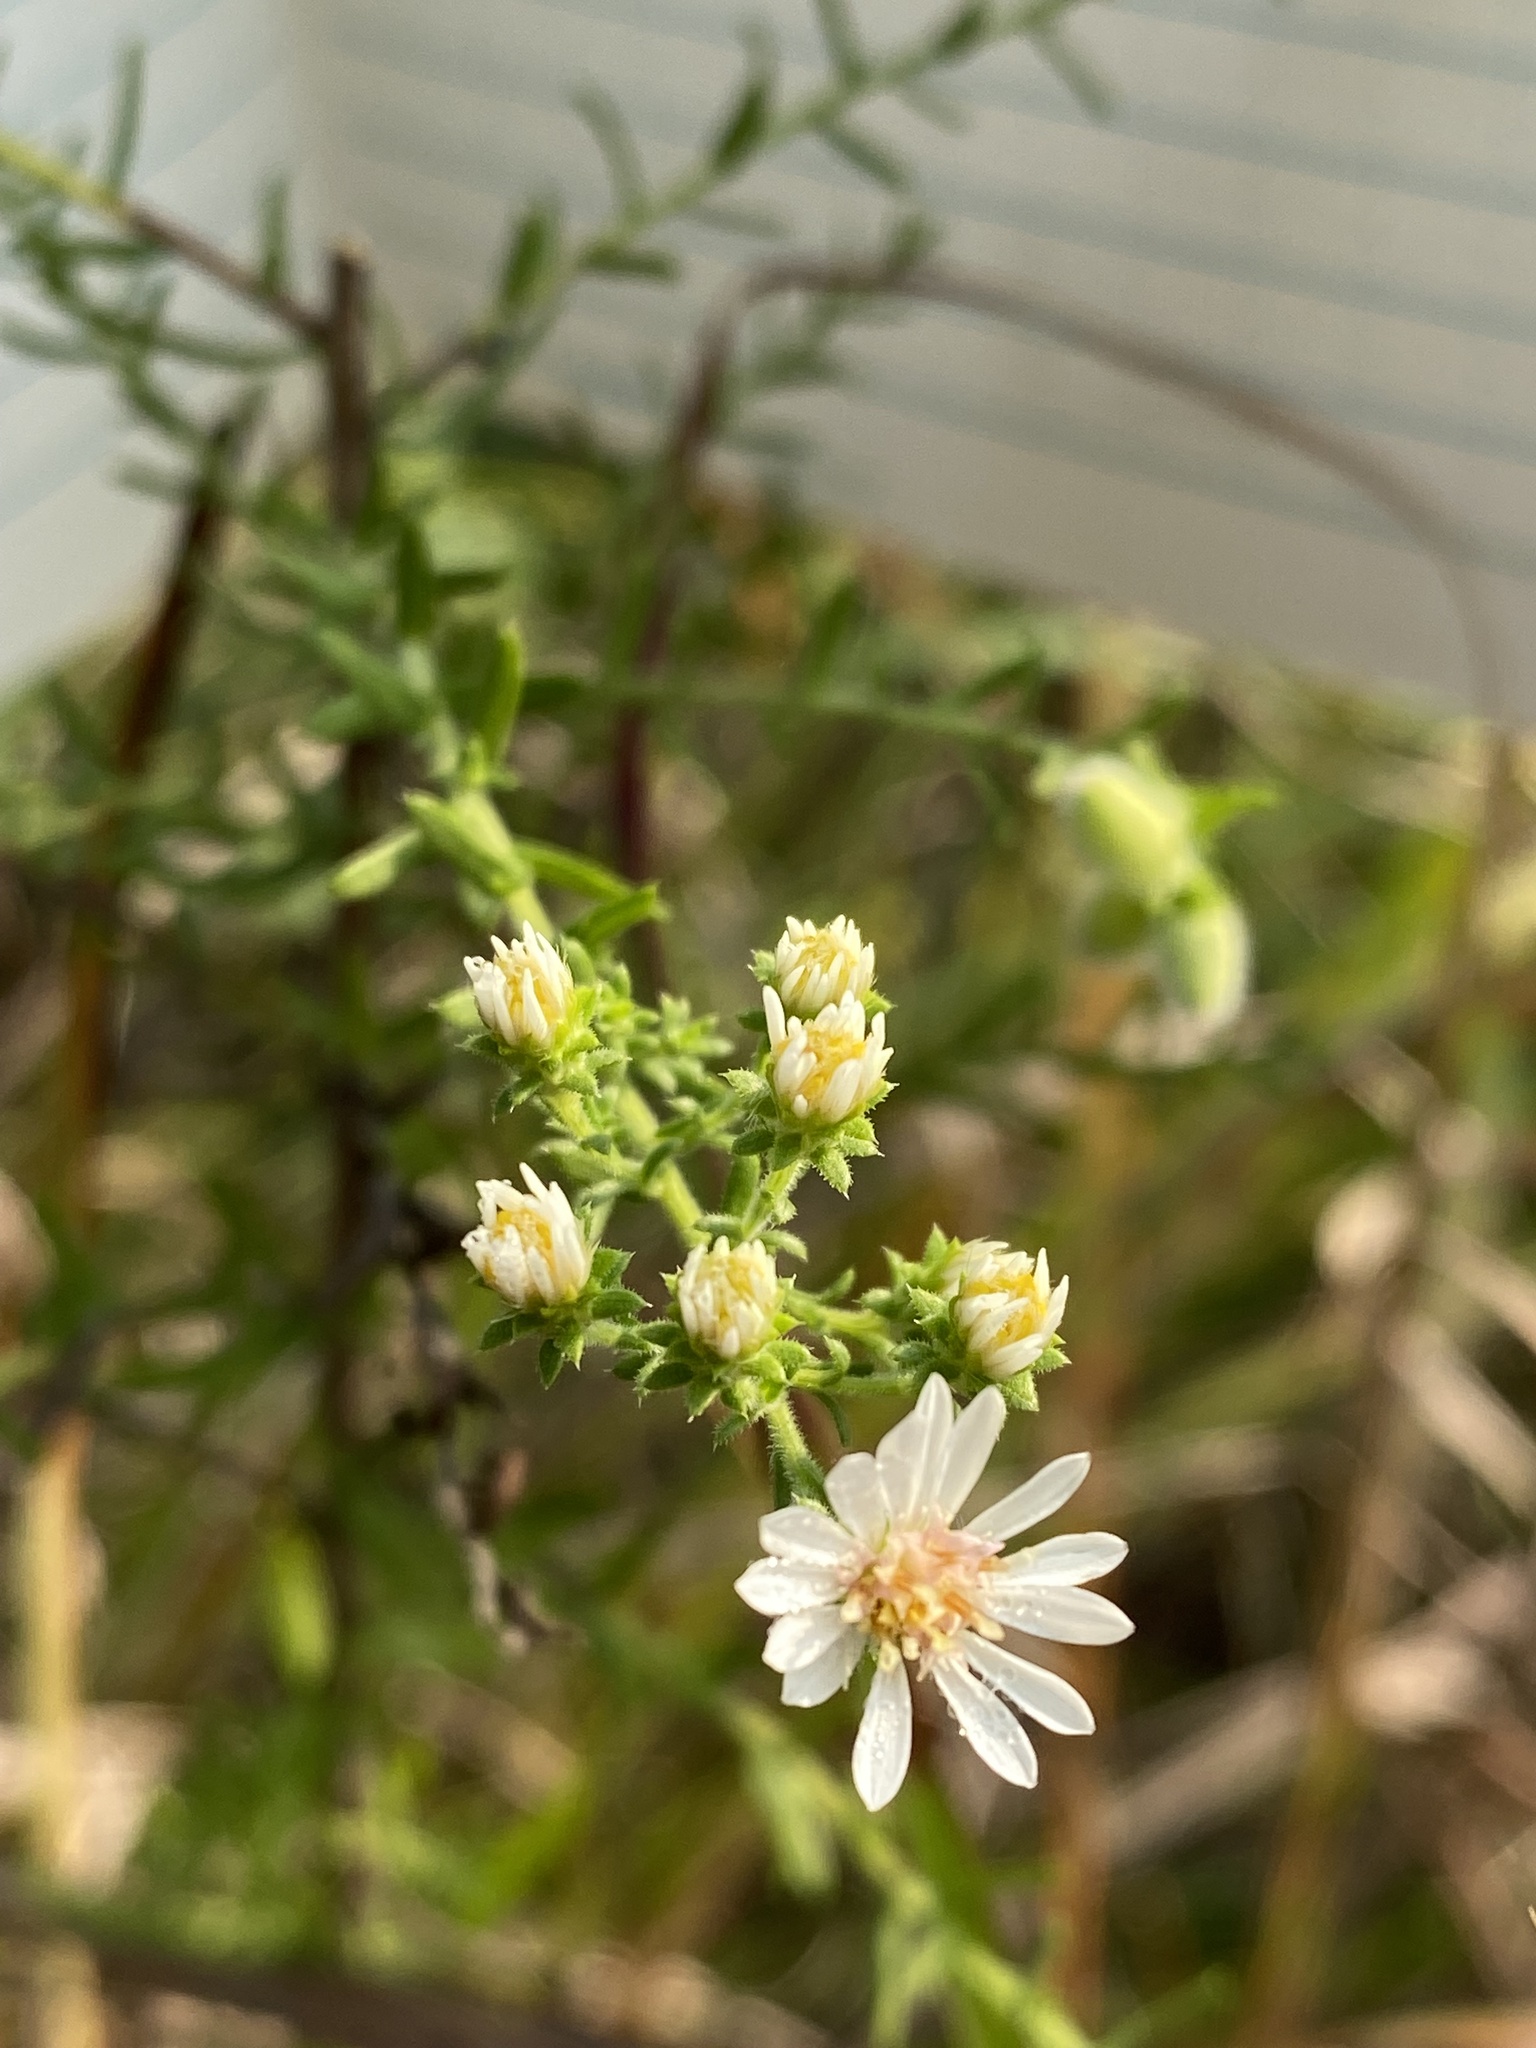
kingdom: Plantae
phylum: Tracheophyta
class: Magnoliopsida
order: Asterales
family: Asteraceae
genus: Symphyotrichum
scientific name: Symphyotrichum ericoides
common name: Heath aster
